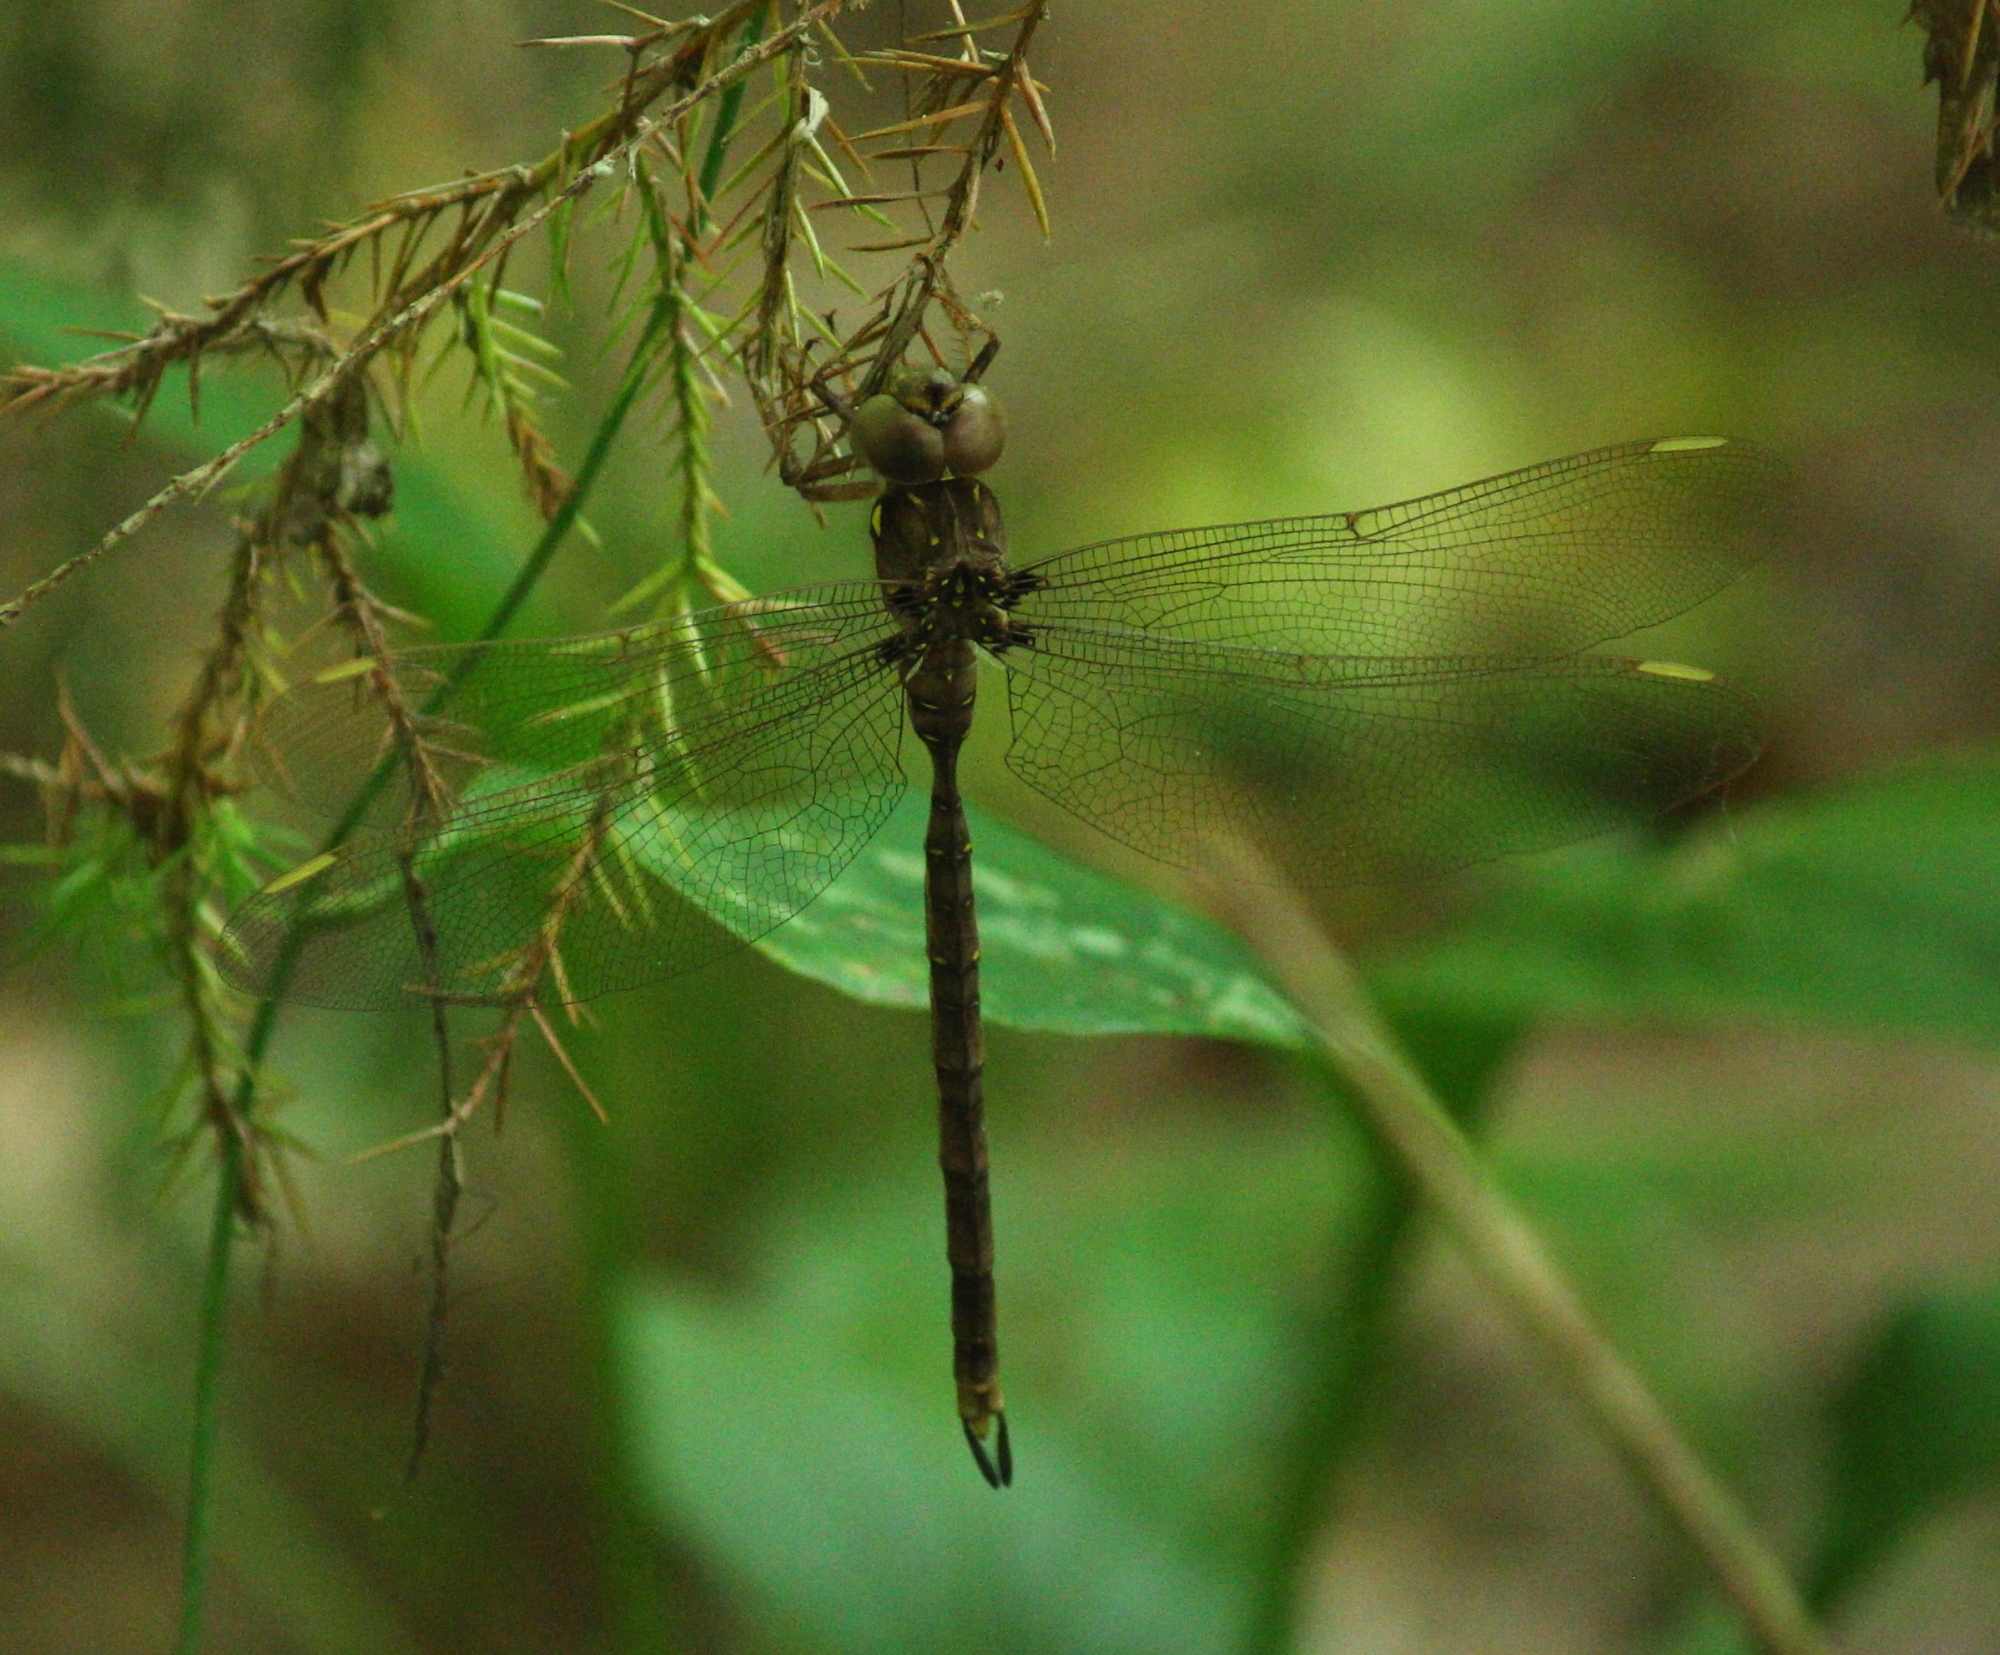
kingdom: Animalia
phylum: Arthropoda
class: Insecta
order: Odonata
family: Aeshnidae
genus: Boyeria
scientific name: Boyeria vinosa
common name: Fawn darner
